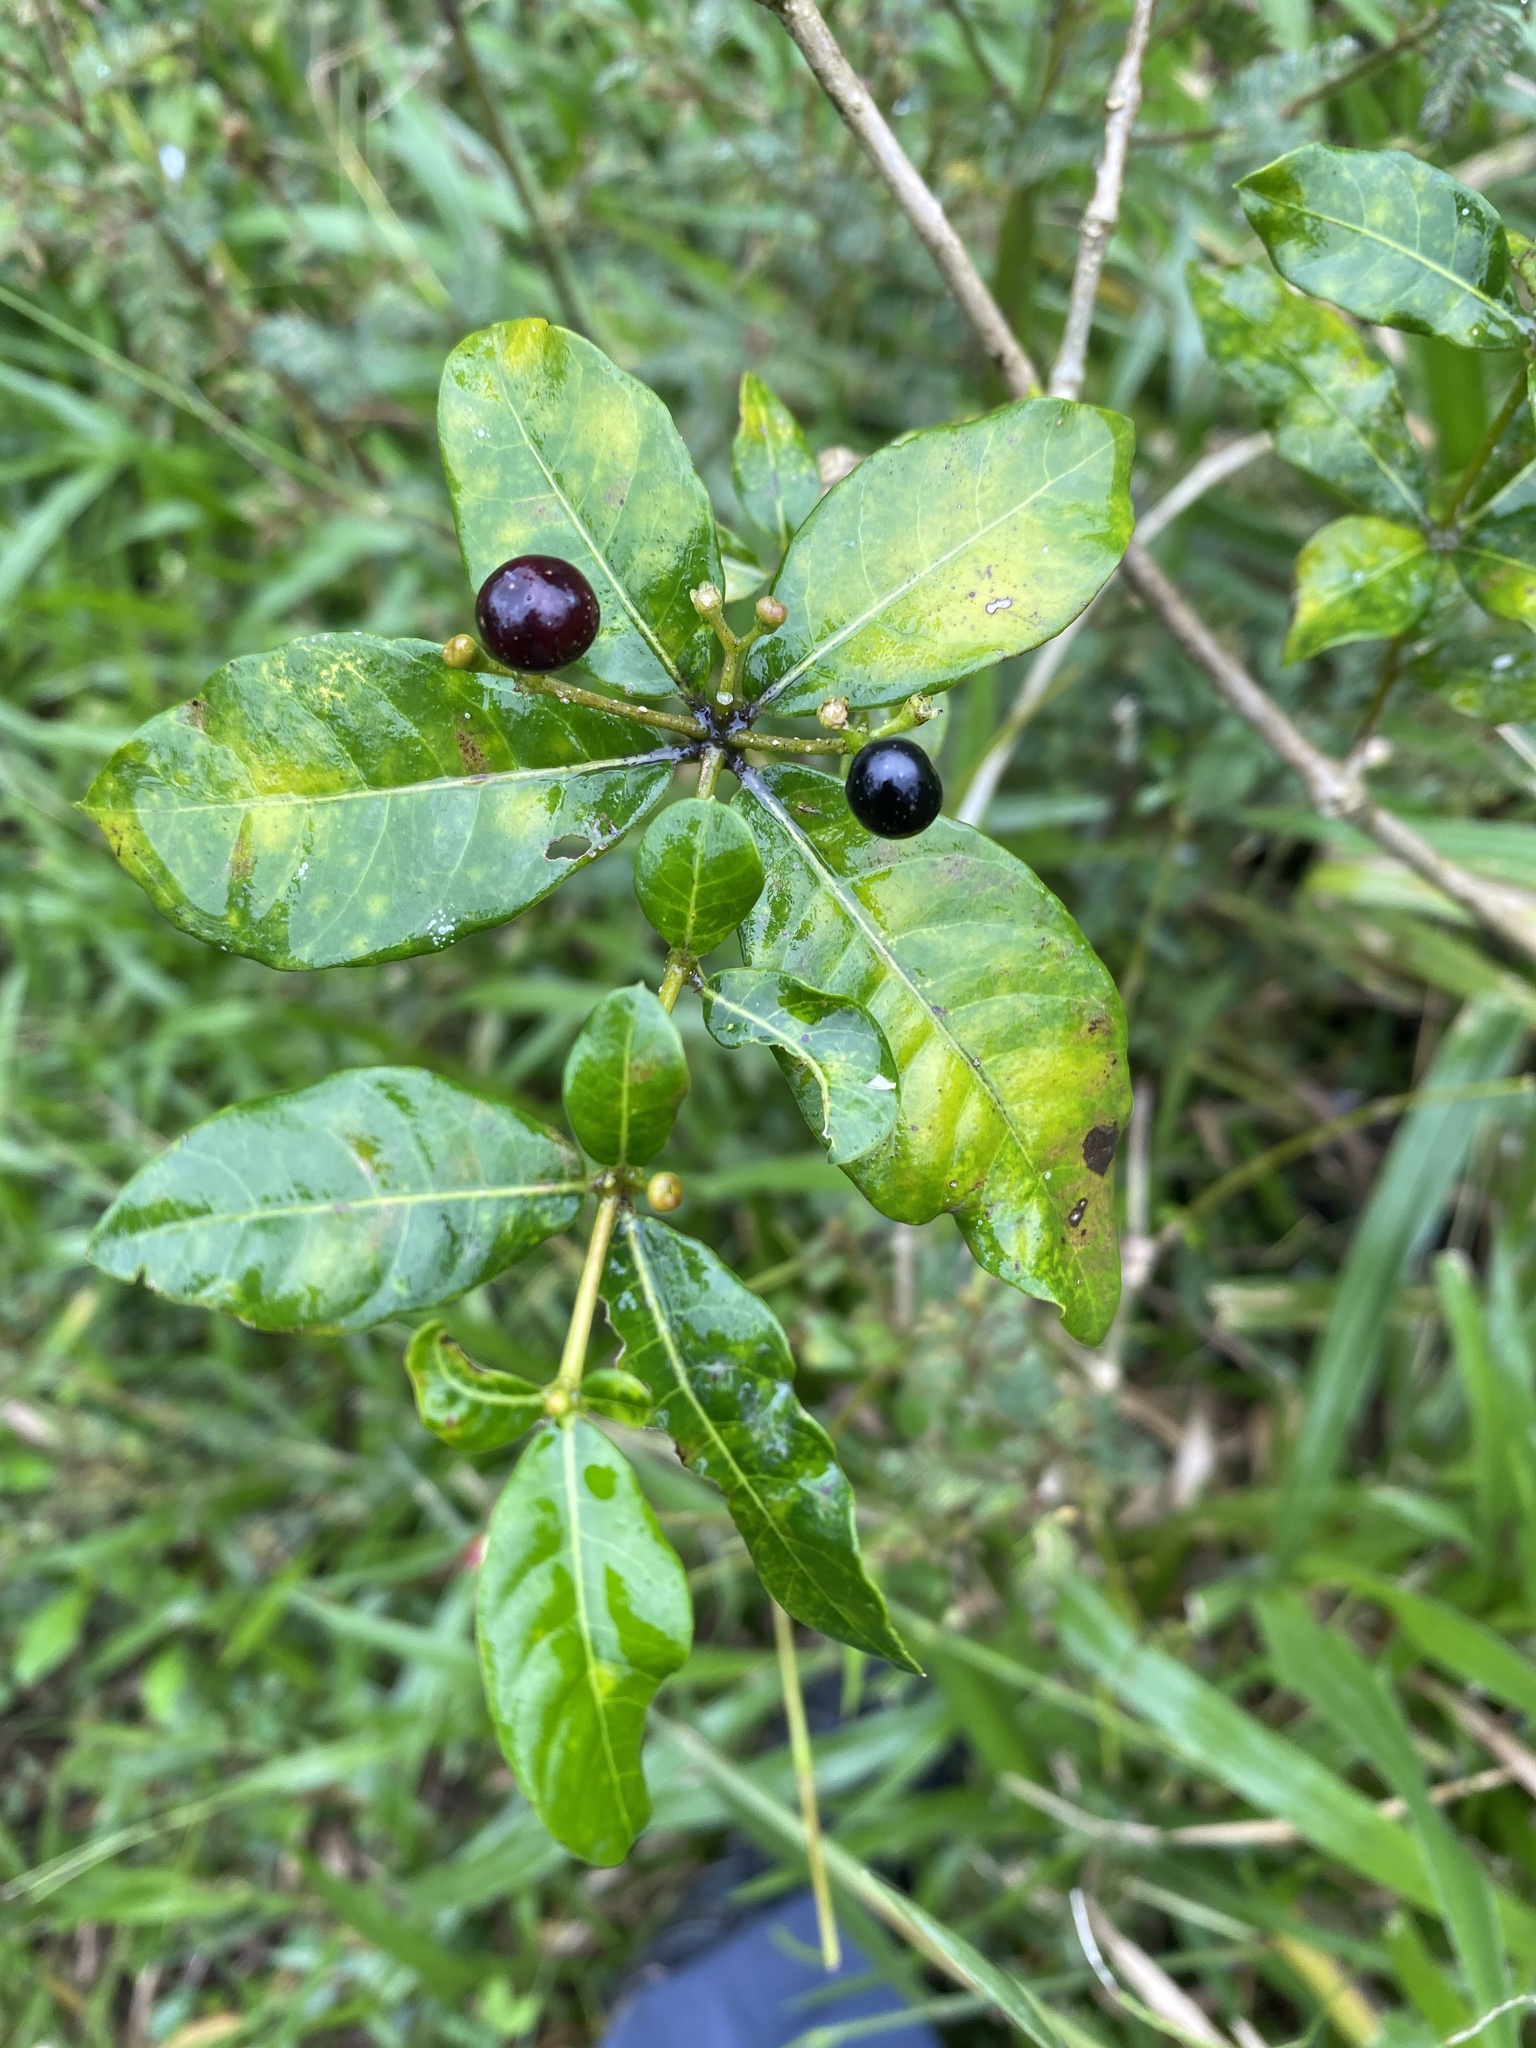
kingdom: Plantae
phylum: Tracheophyta
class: Magnoliopsida
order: Gentianales
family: Apocynaceae
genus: Rauvolfia
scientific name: Rauvolfia tetraphylla
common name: Four-leaf devil-pepper
